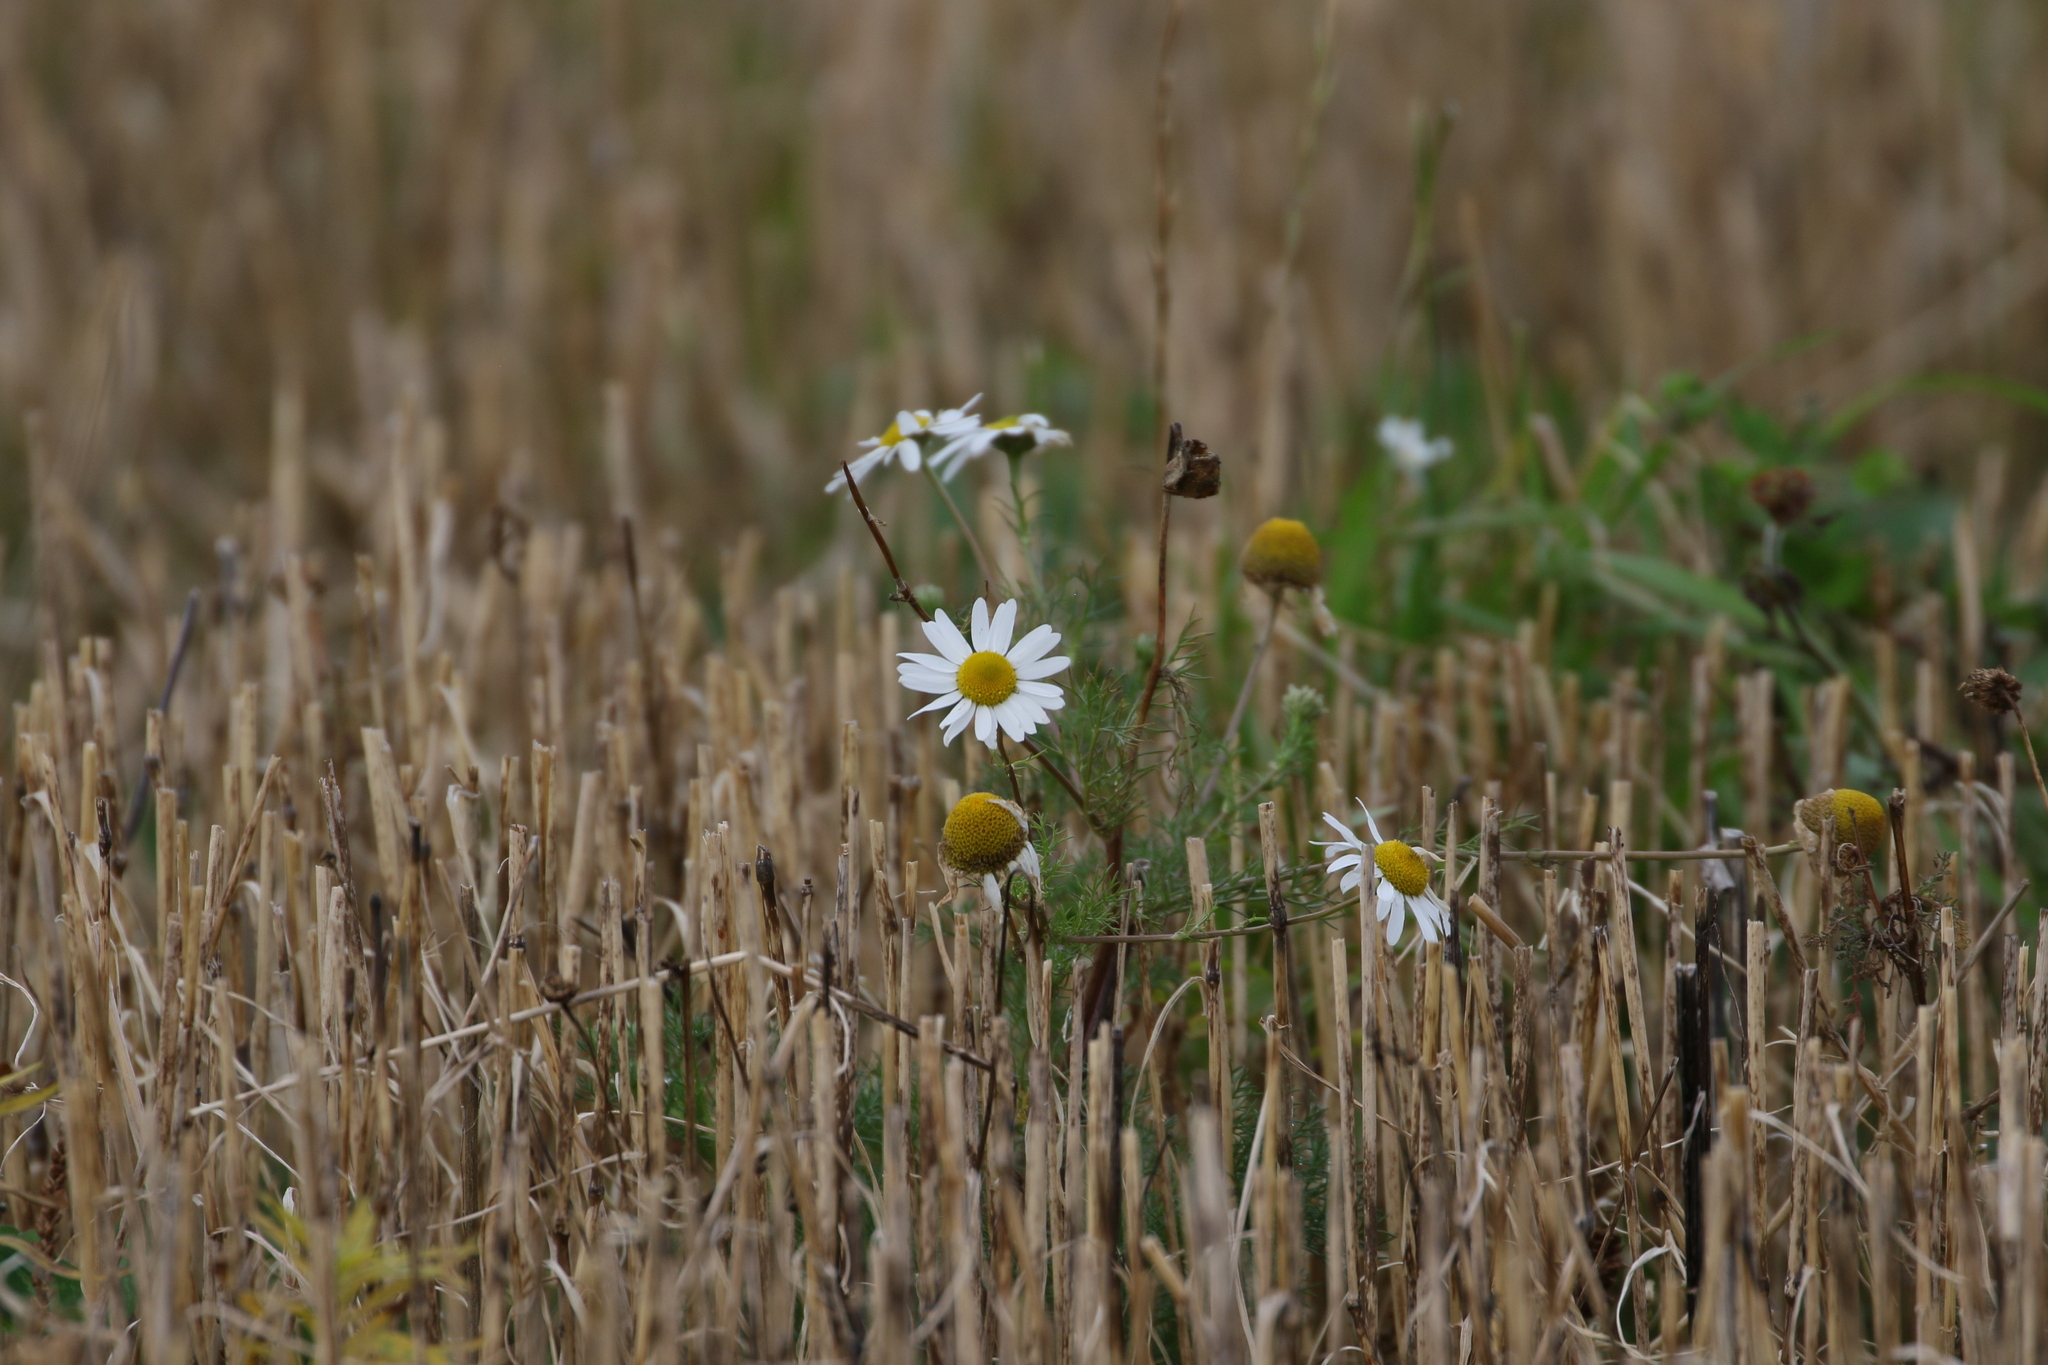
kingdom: Plantae
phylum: Tracheophyta
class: Magnoliopsida
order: Asterales
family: Asteraceae
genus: Tripleurospermum
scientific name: Tripleurospermum inodorum
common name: Scentless mayweed
